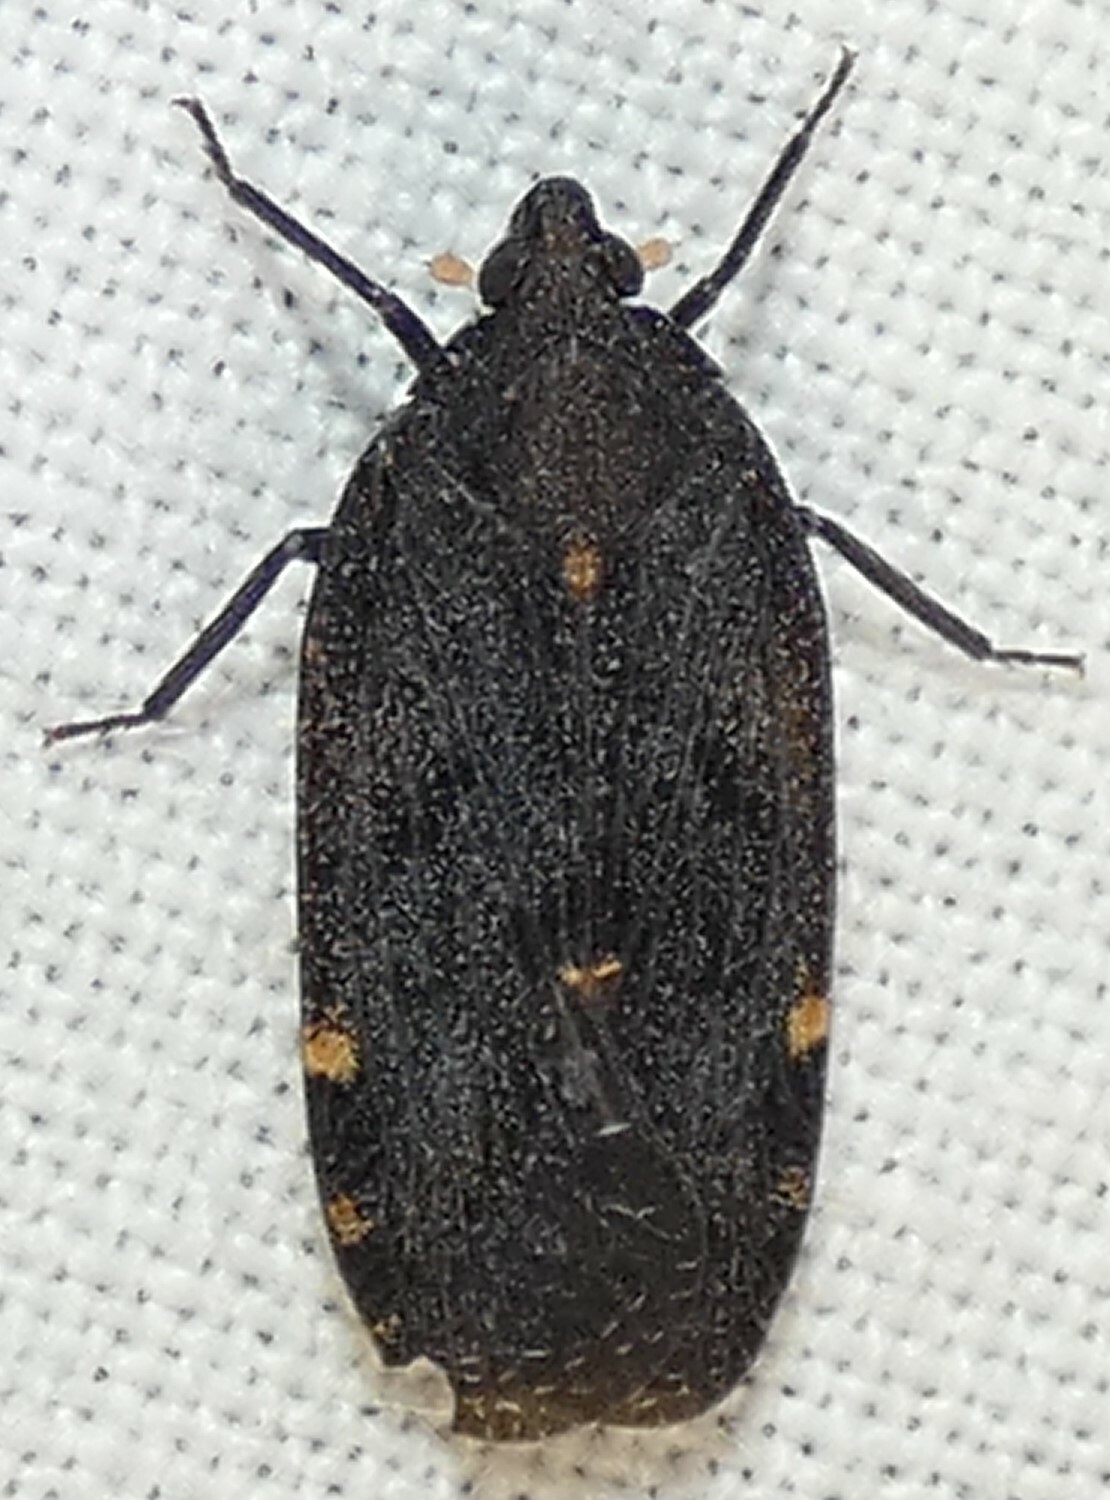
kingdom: Animalia
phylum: Arthropoda
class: Insecta
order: Hemiptera
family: Achilidae
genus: Cixidia
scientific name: Cixidia opaca
